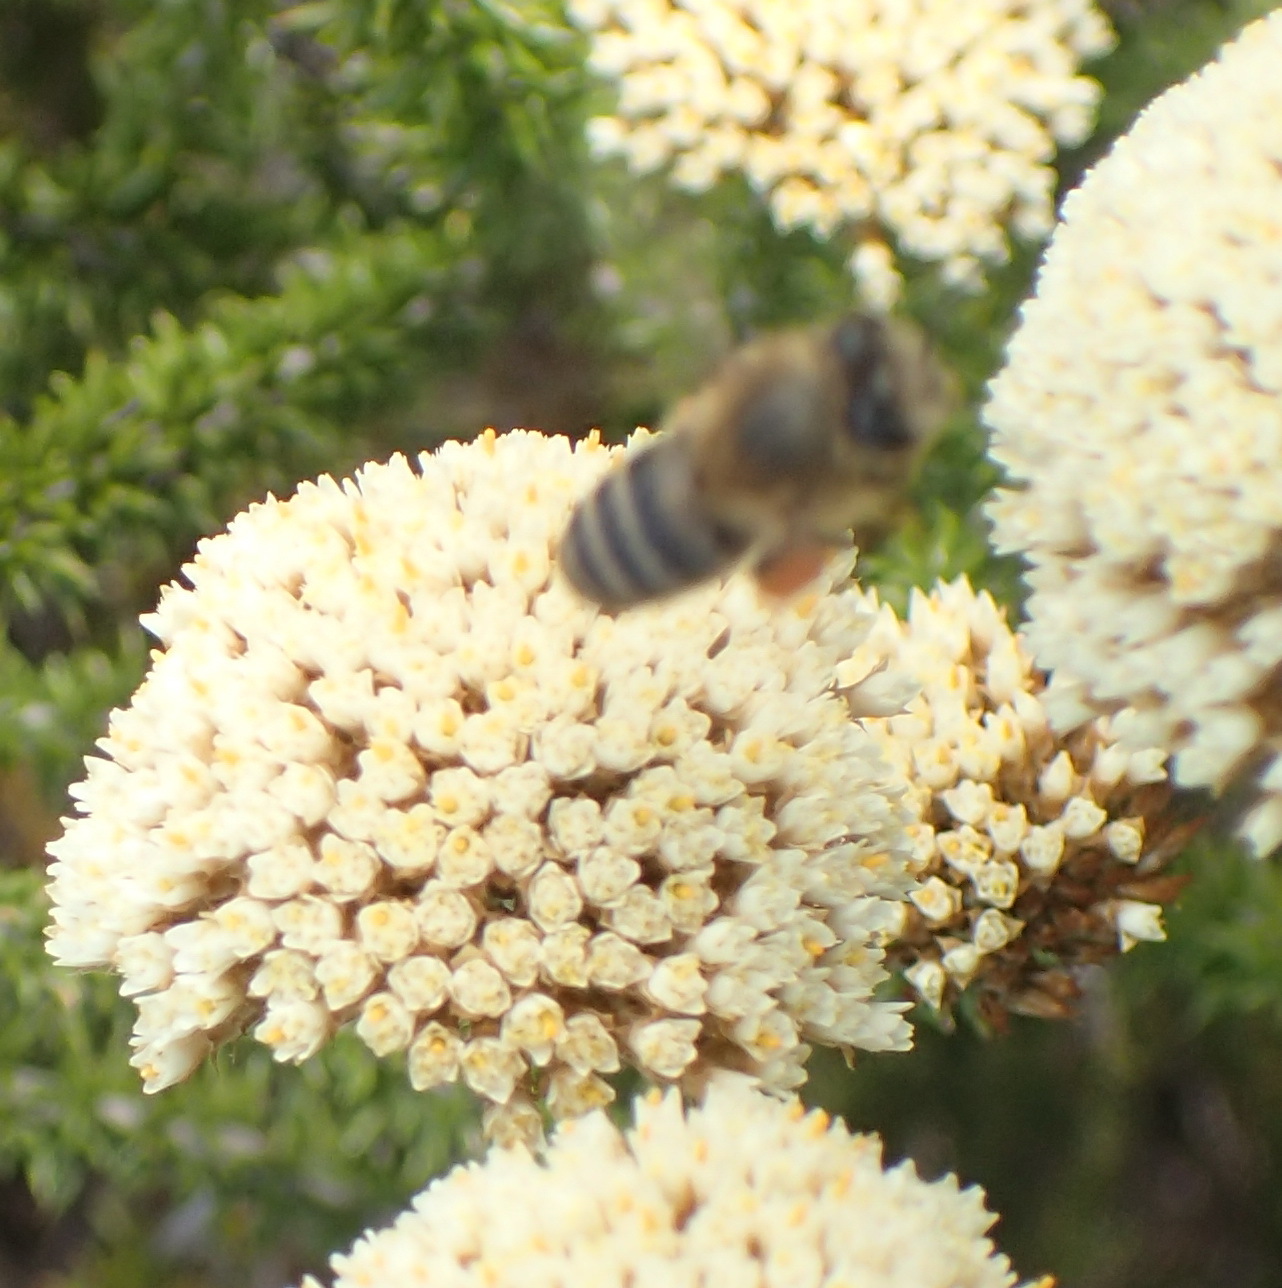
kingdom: Animalia
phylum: Arthropoda
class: Insecta
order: Hymenoptera
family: Apidae
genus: Apis
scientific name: Apis mellifera
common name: Honey bee
